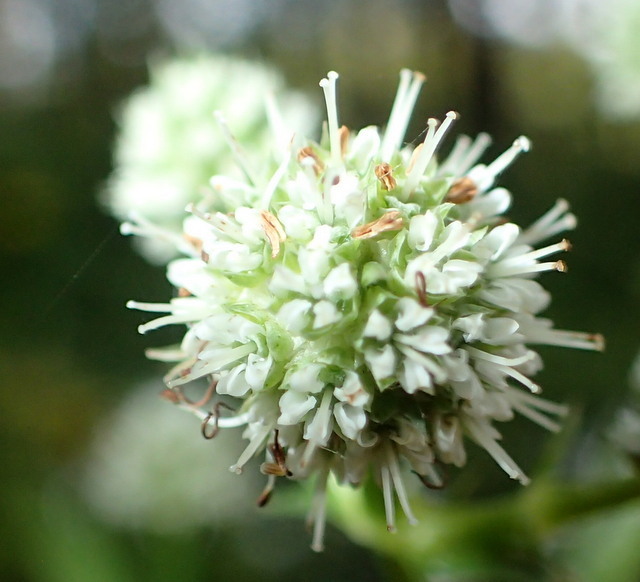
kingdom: Plantae
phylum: Tracheophyta
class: Magnoliopsida
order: Apiales
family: Apiaceae
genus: Eryngium
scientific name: Eryngium yuccifolium
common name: Button eryngo
